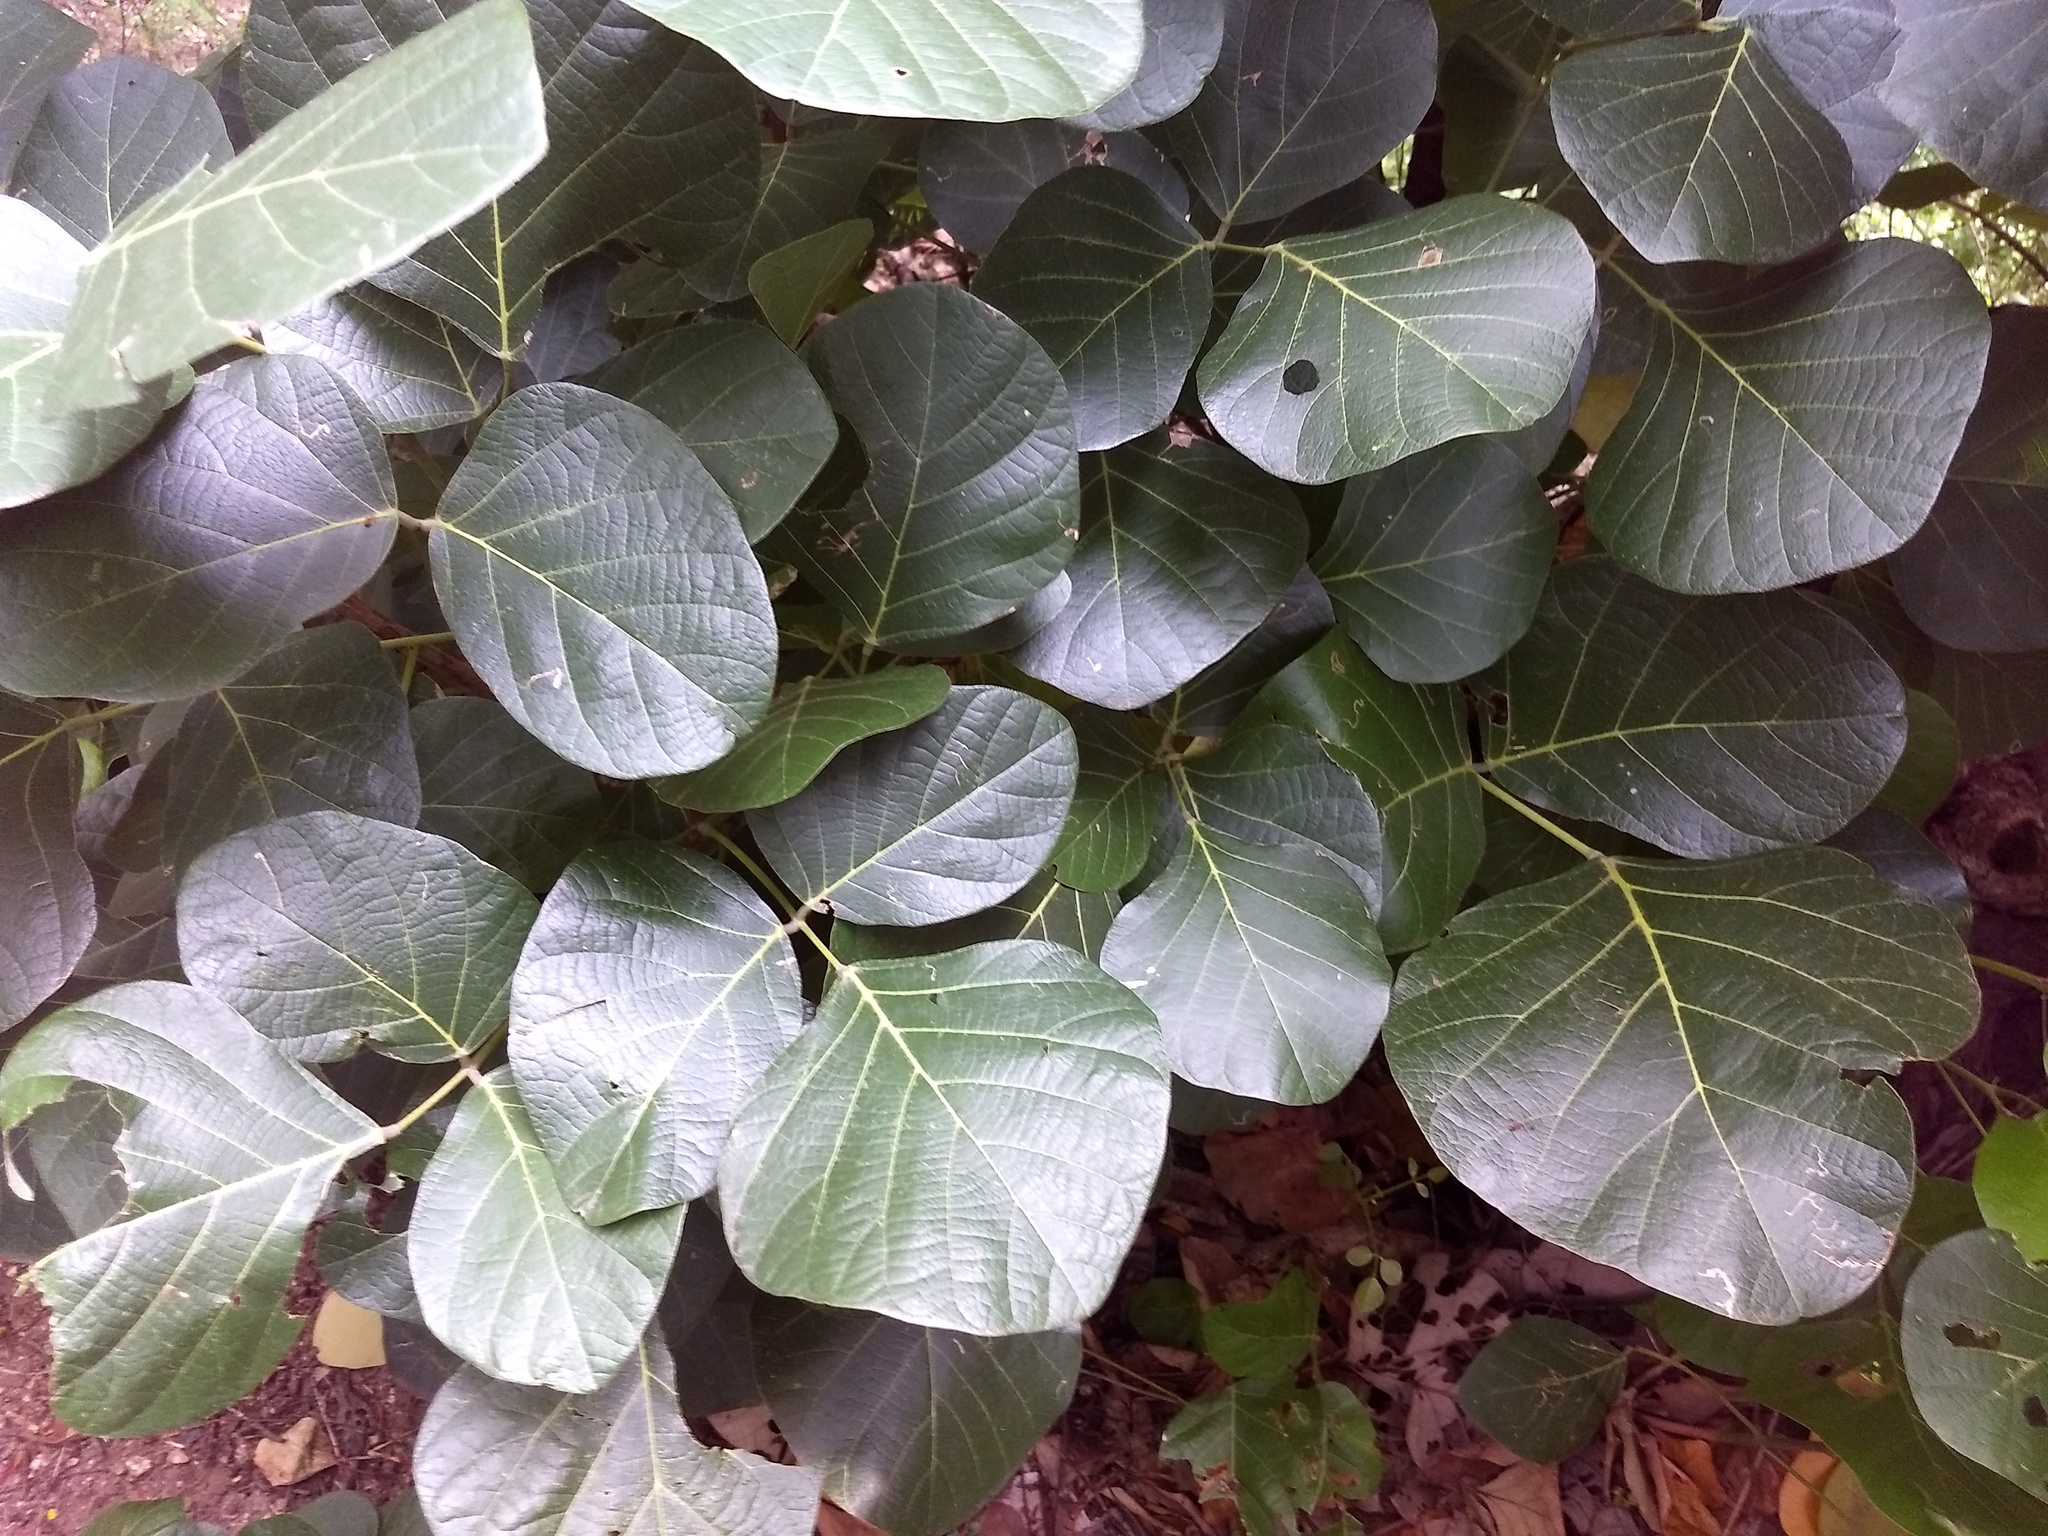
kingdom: Plantae
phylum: Tracheophyta
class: Magnoliopsida
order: Fabales
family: Fabaceae
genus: Butea
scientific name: Butea monosperma
